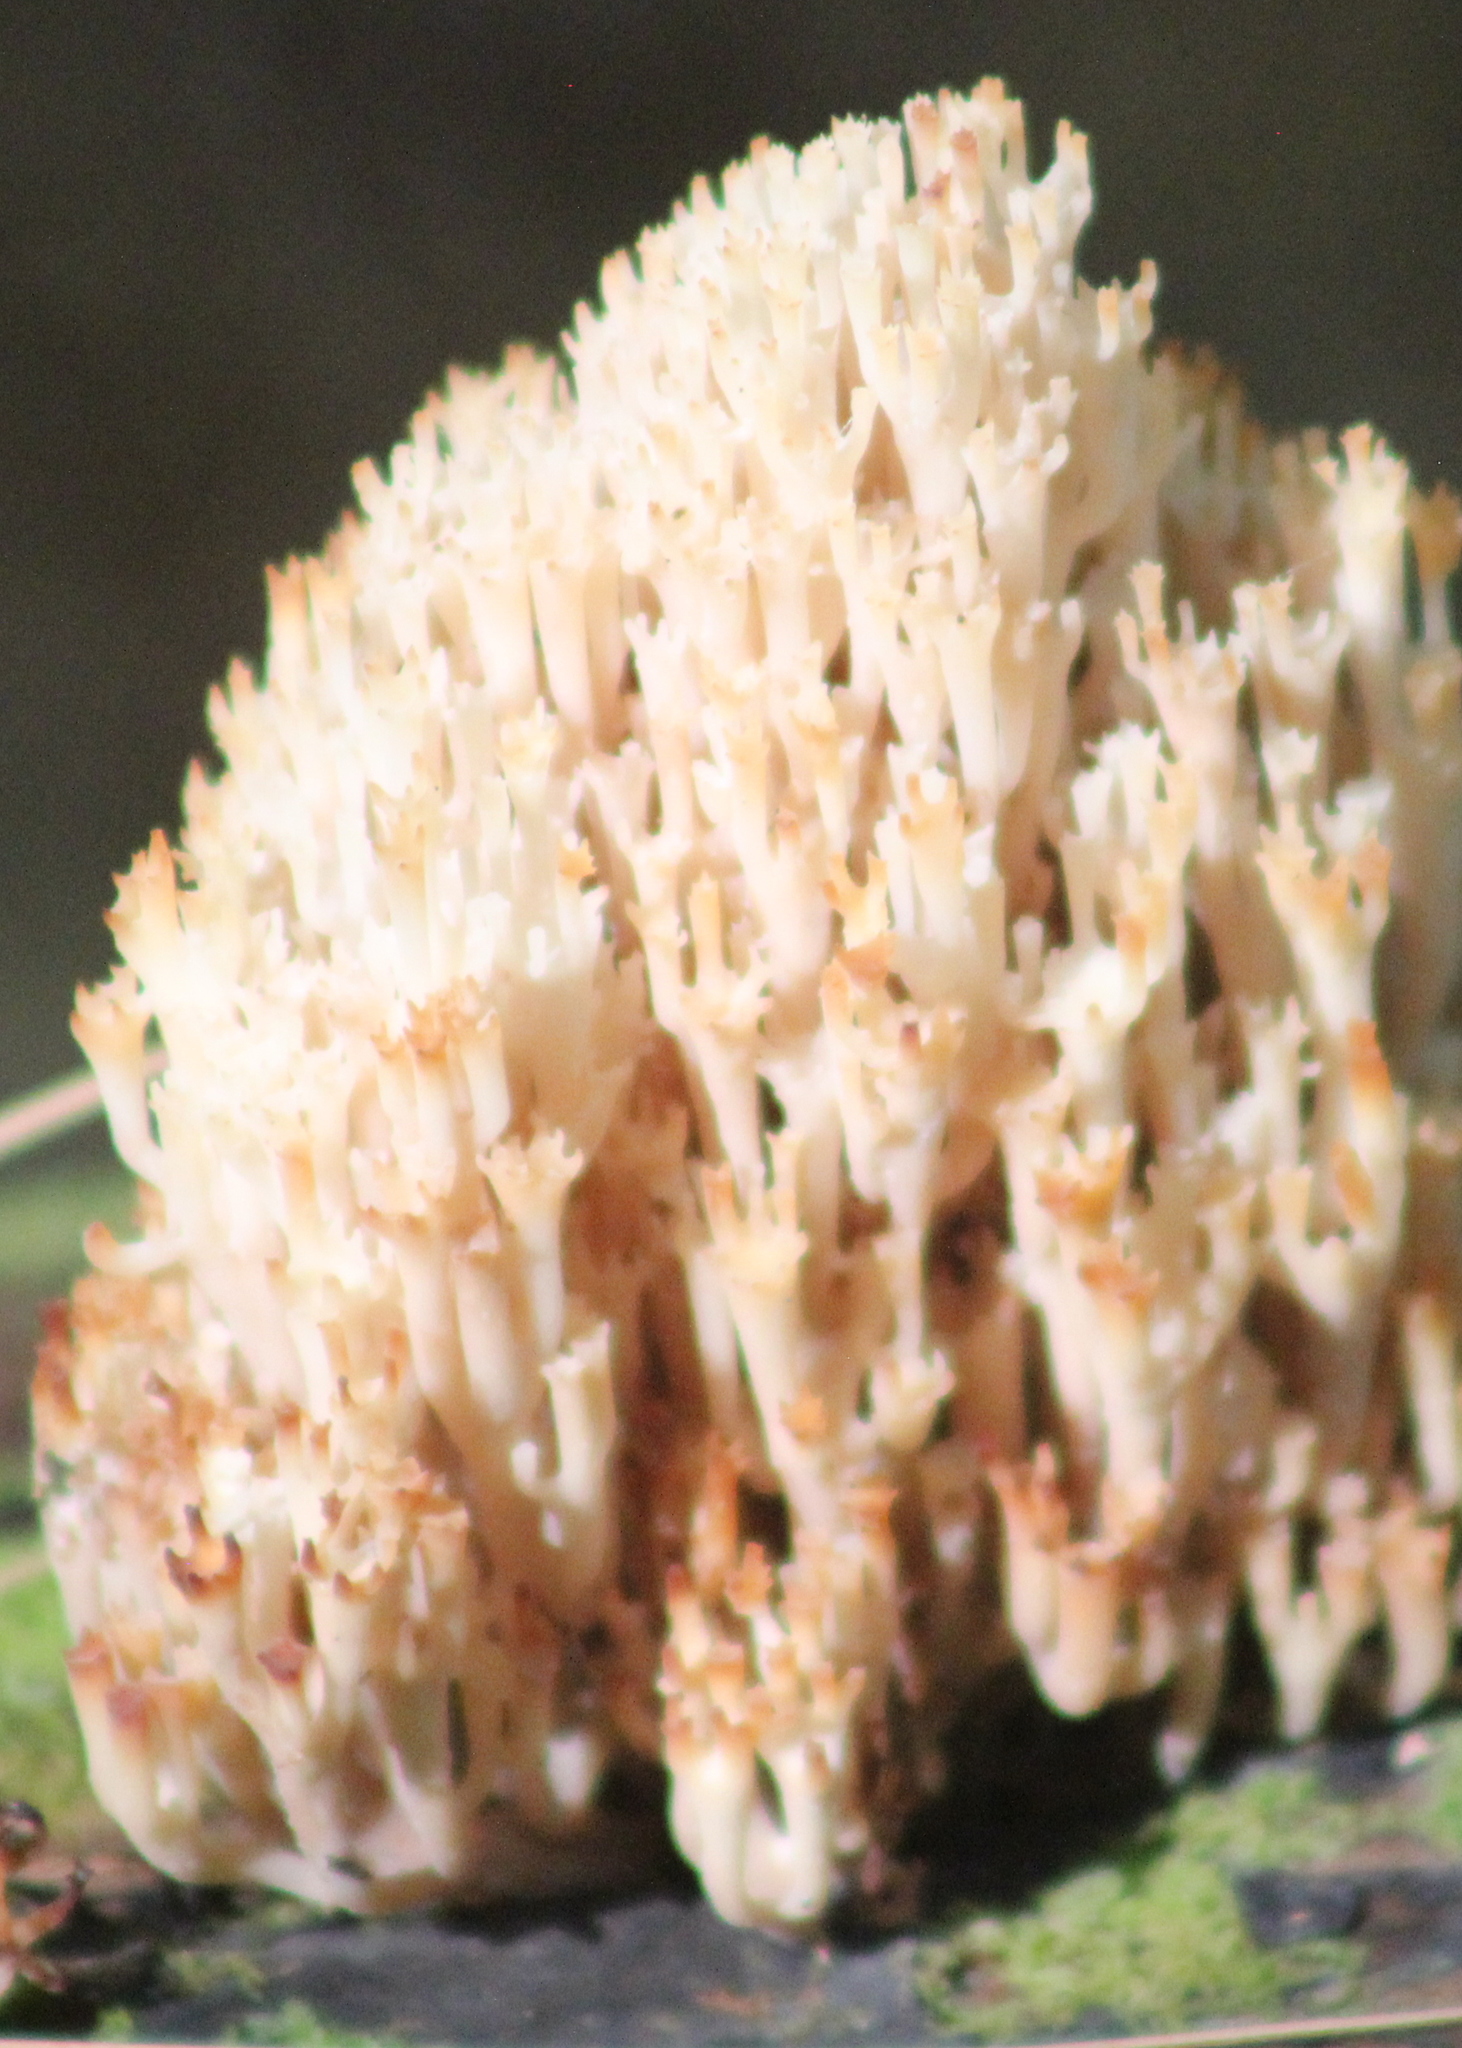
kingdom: Fungi
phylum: Basidiomycota
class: Agaricomycetes
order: Russulales
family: Auriscalpiaceae
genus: Artomyces
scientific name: Artomyces pyxidatus
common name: Crown-tipped coral fungus
